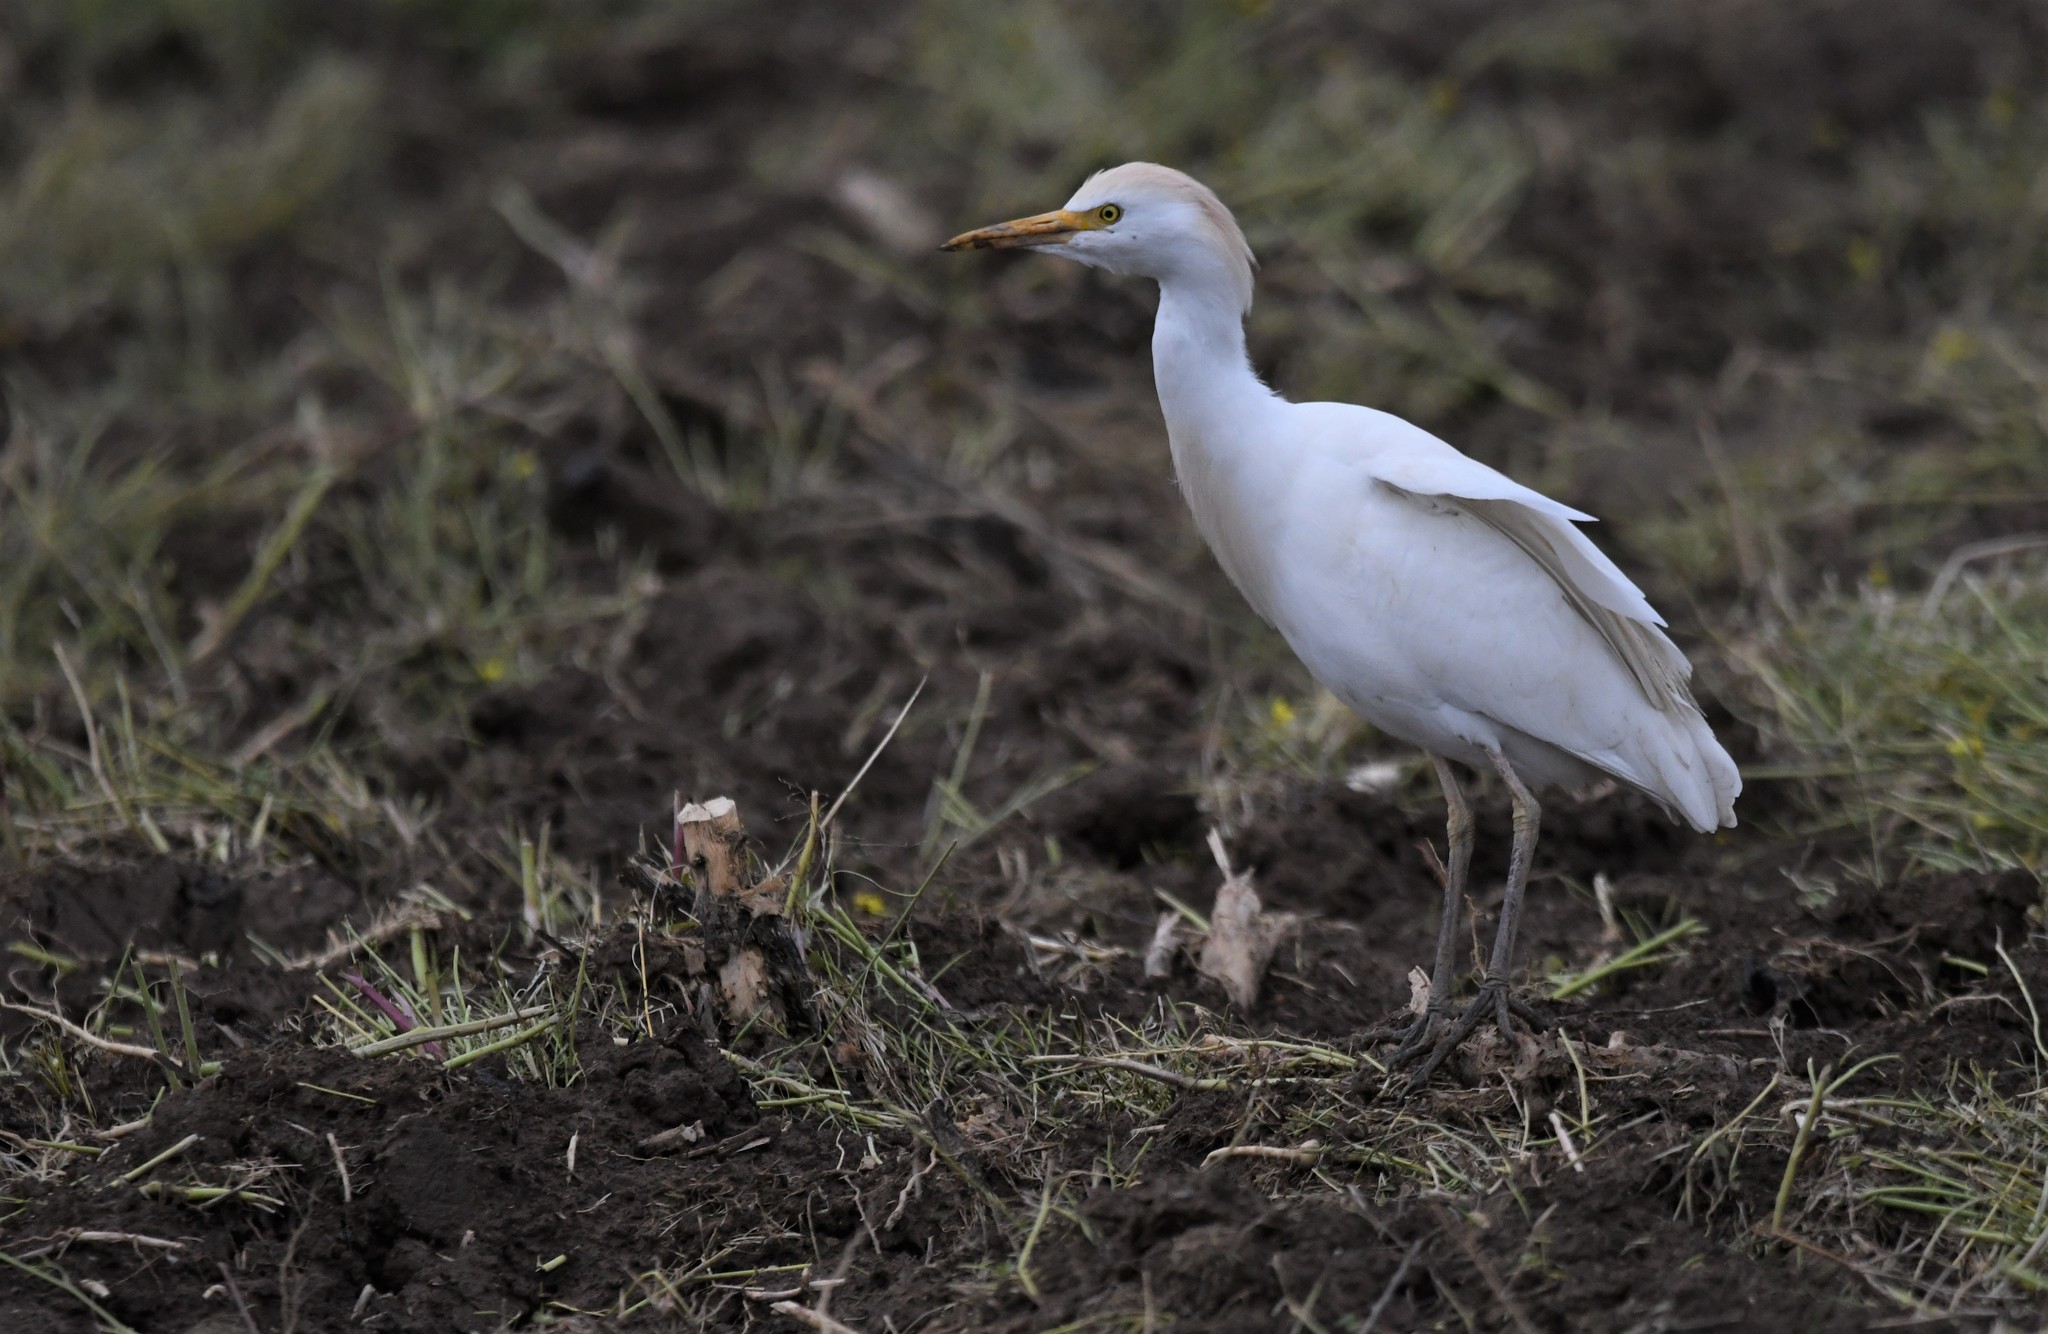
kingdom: Animalia
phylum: Chordata
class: Aves
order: Pelecaniformes
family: Ardeidae
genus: Bubulcus
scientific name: Bubulcus ibis
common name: Cattle egret
